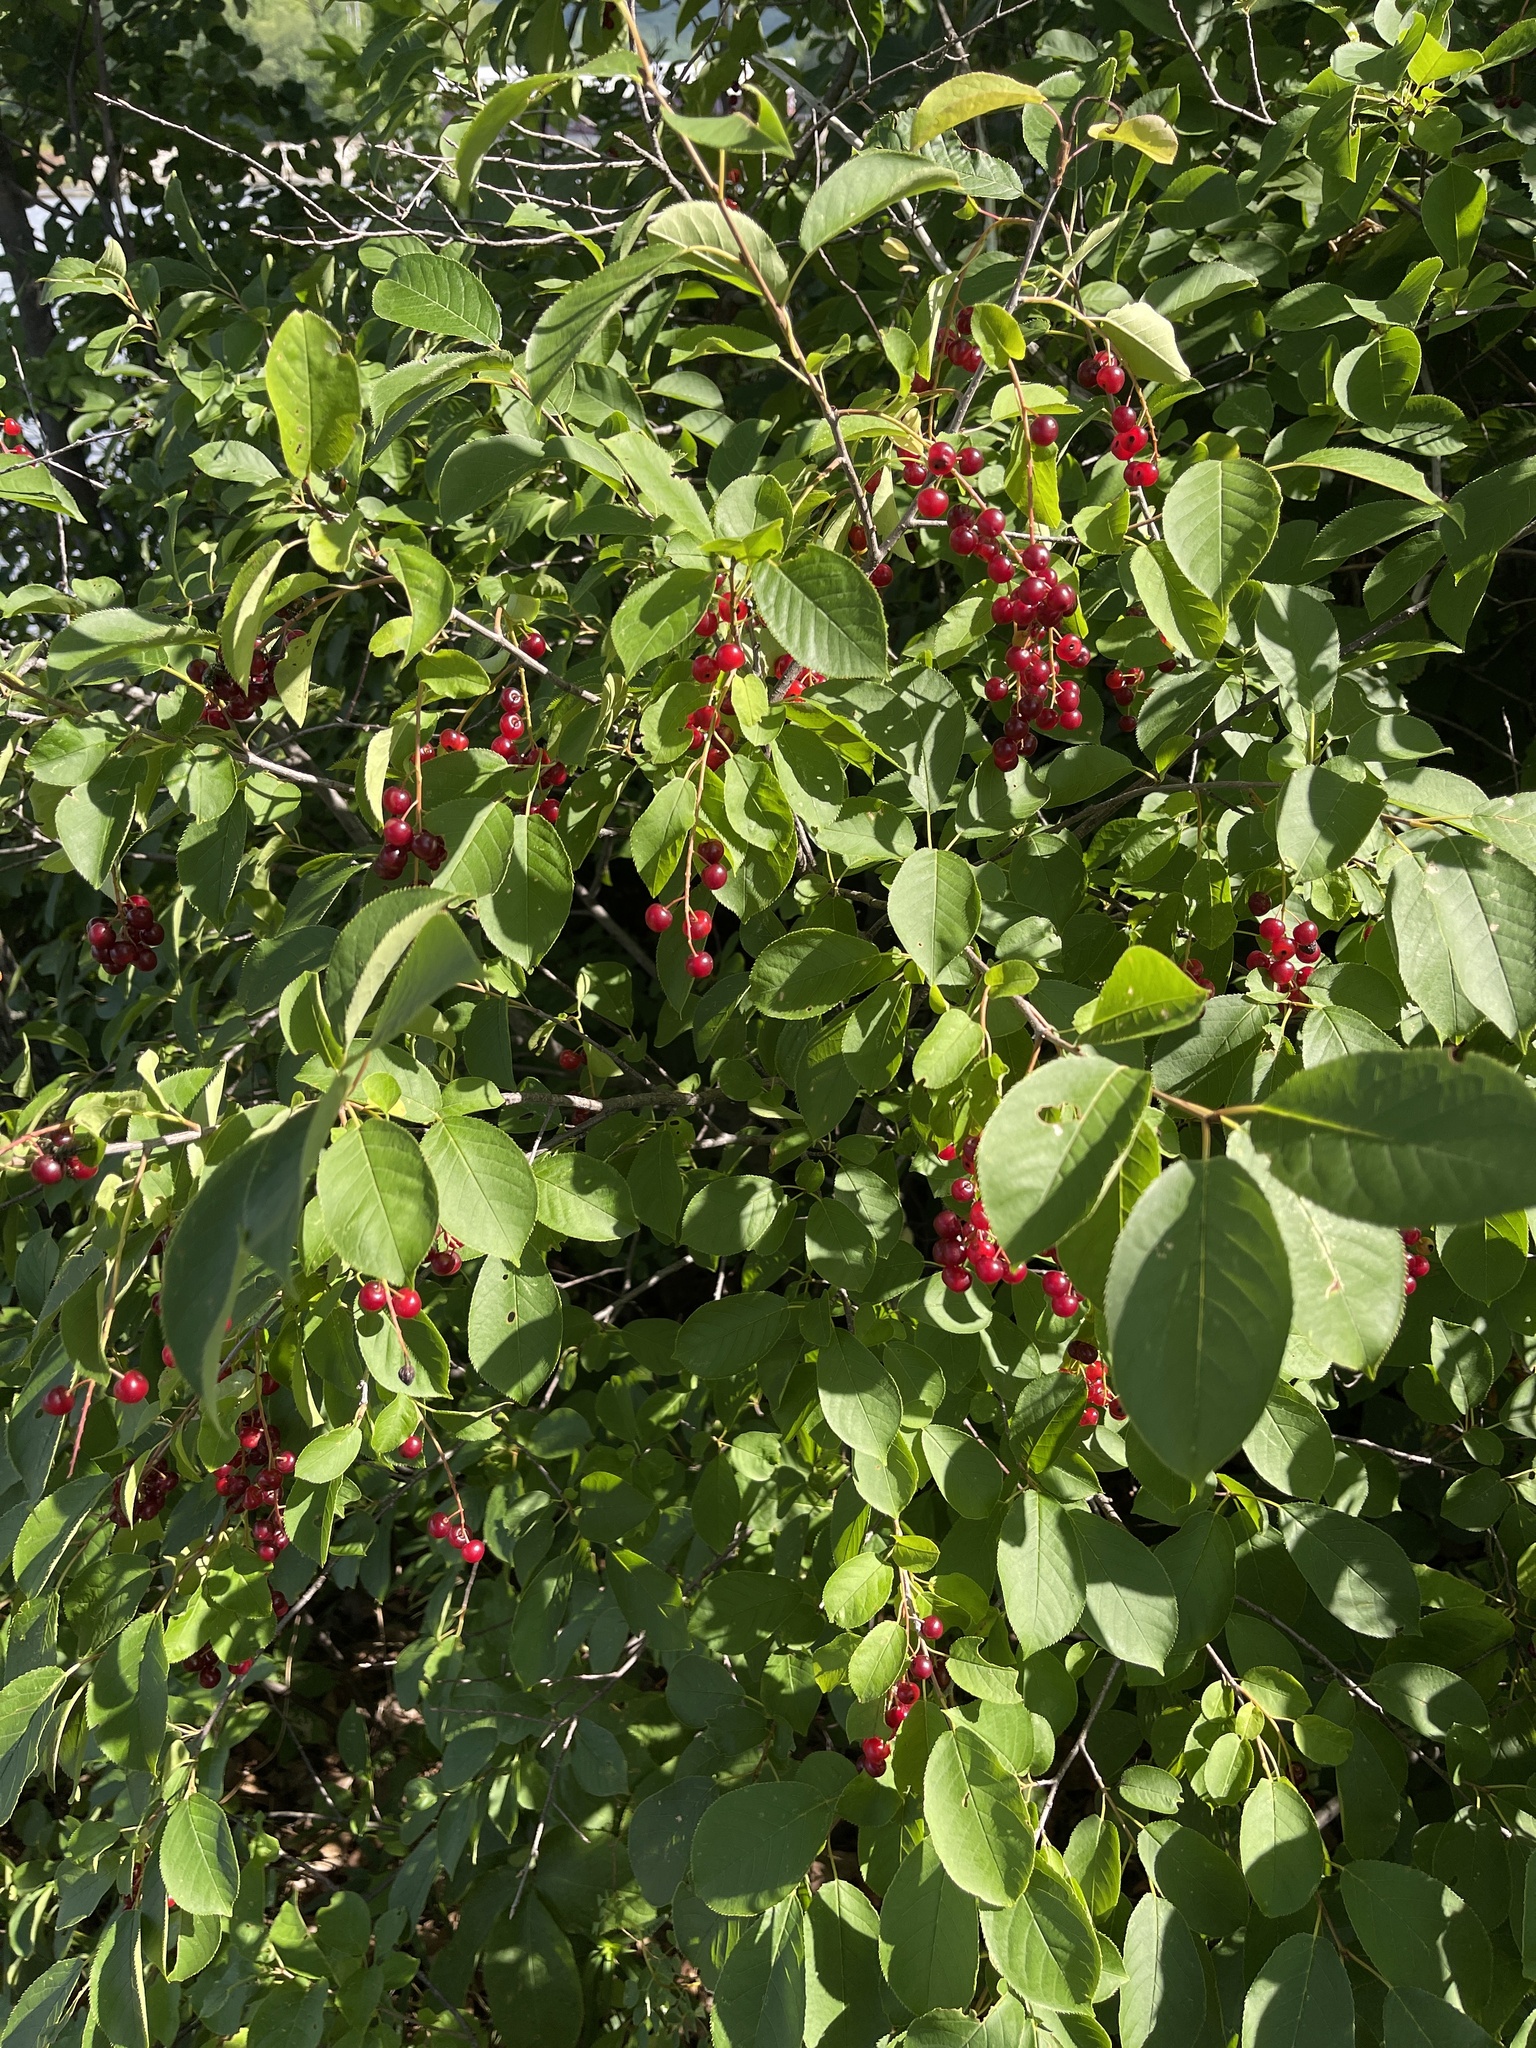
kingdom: Plantae
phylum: Tracheophyta
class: Magnoliopsida
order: Rosales
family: Rosaceae
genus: Prunus
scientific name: Prunus virginiana
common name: Chokecherry
